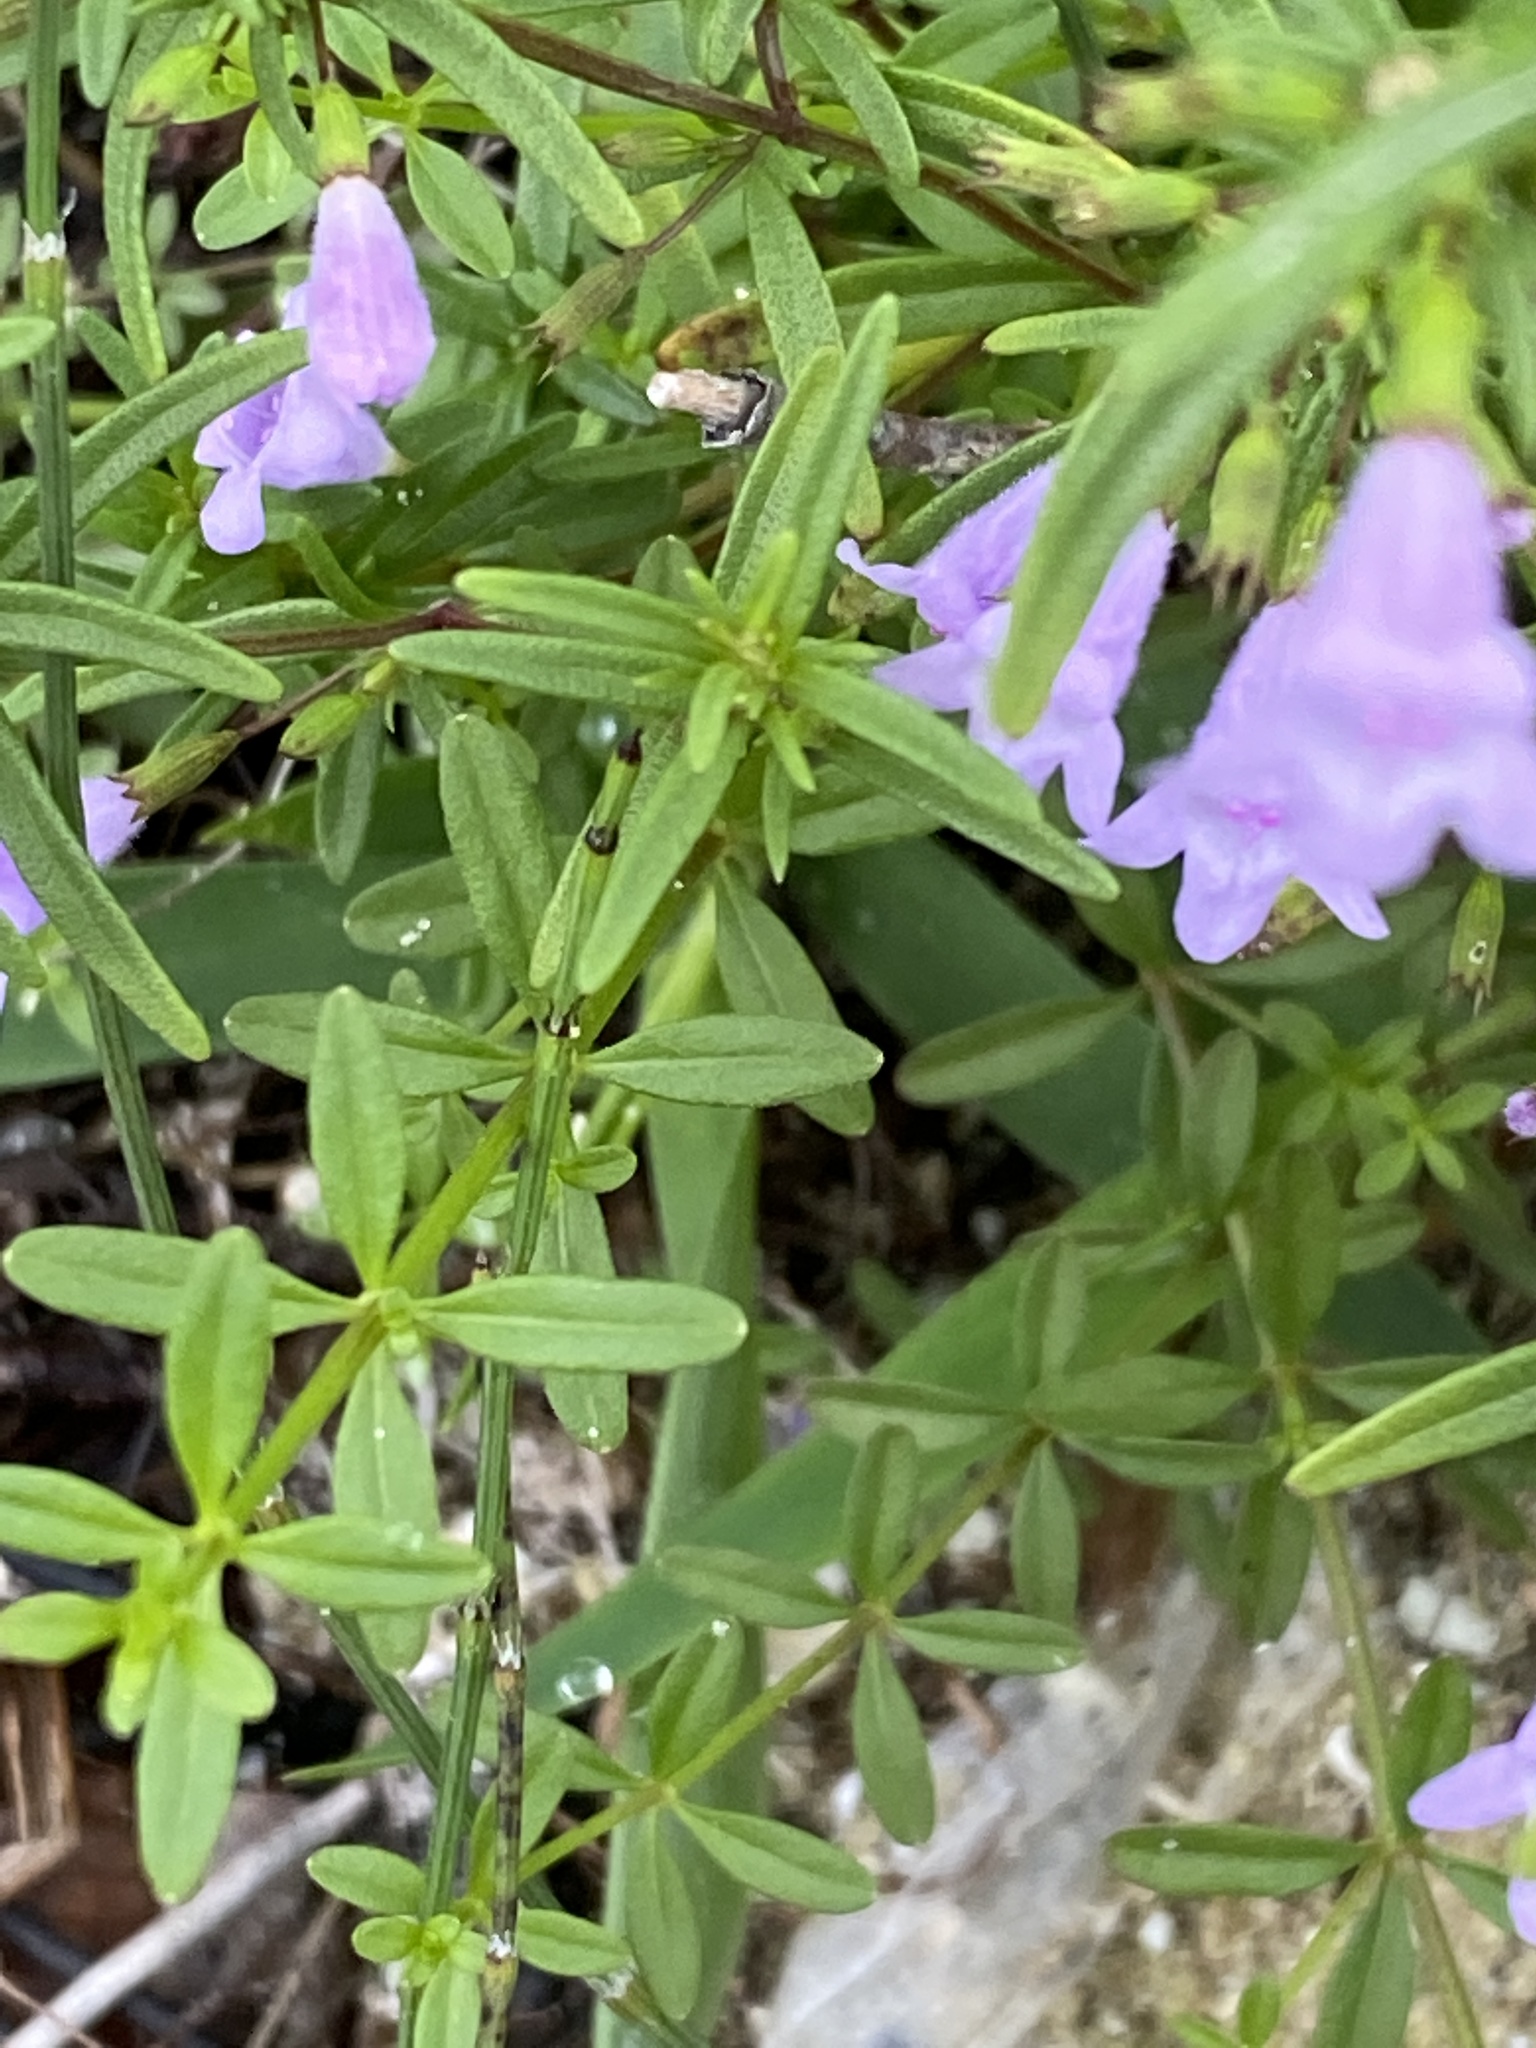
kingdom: Plantae
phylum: Tracheophyta
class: Magnoliopsida
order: Lamiales
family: Lamiaceae
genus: Clinopodium
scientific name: Clinopodium arkansanum
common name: Limestone calamint
